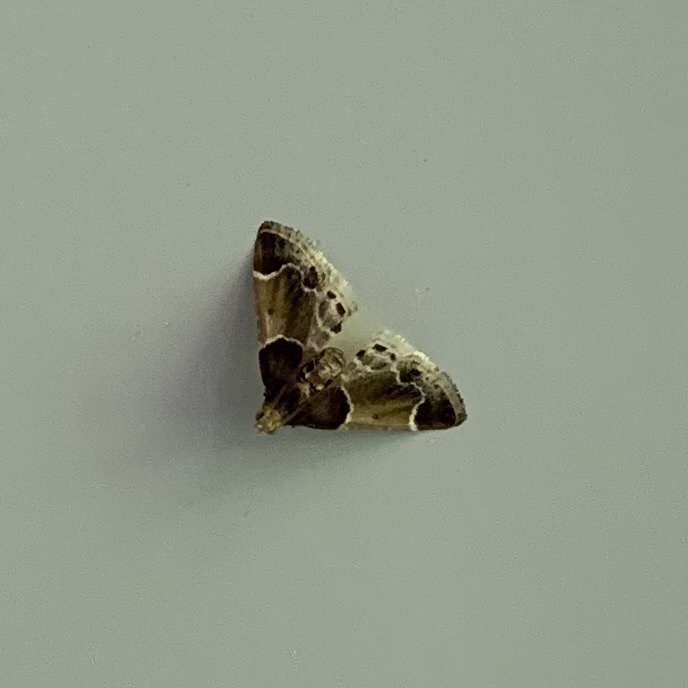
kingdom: Animalia
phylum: Arthropoda
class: Insecta
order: Lepidoptera
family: Pyralidae
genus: Pyralis
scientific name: Pyralis farinalis
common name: Meal moth
